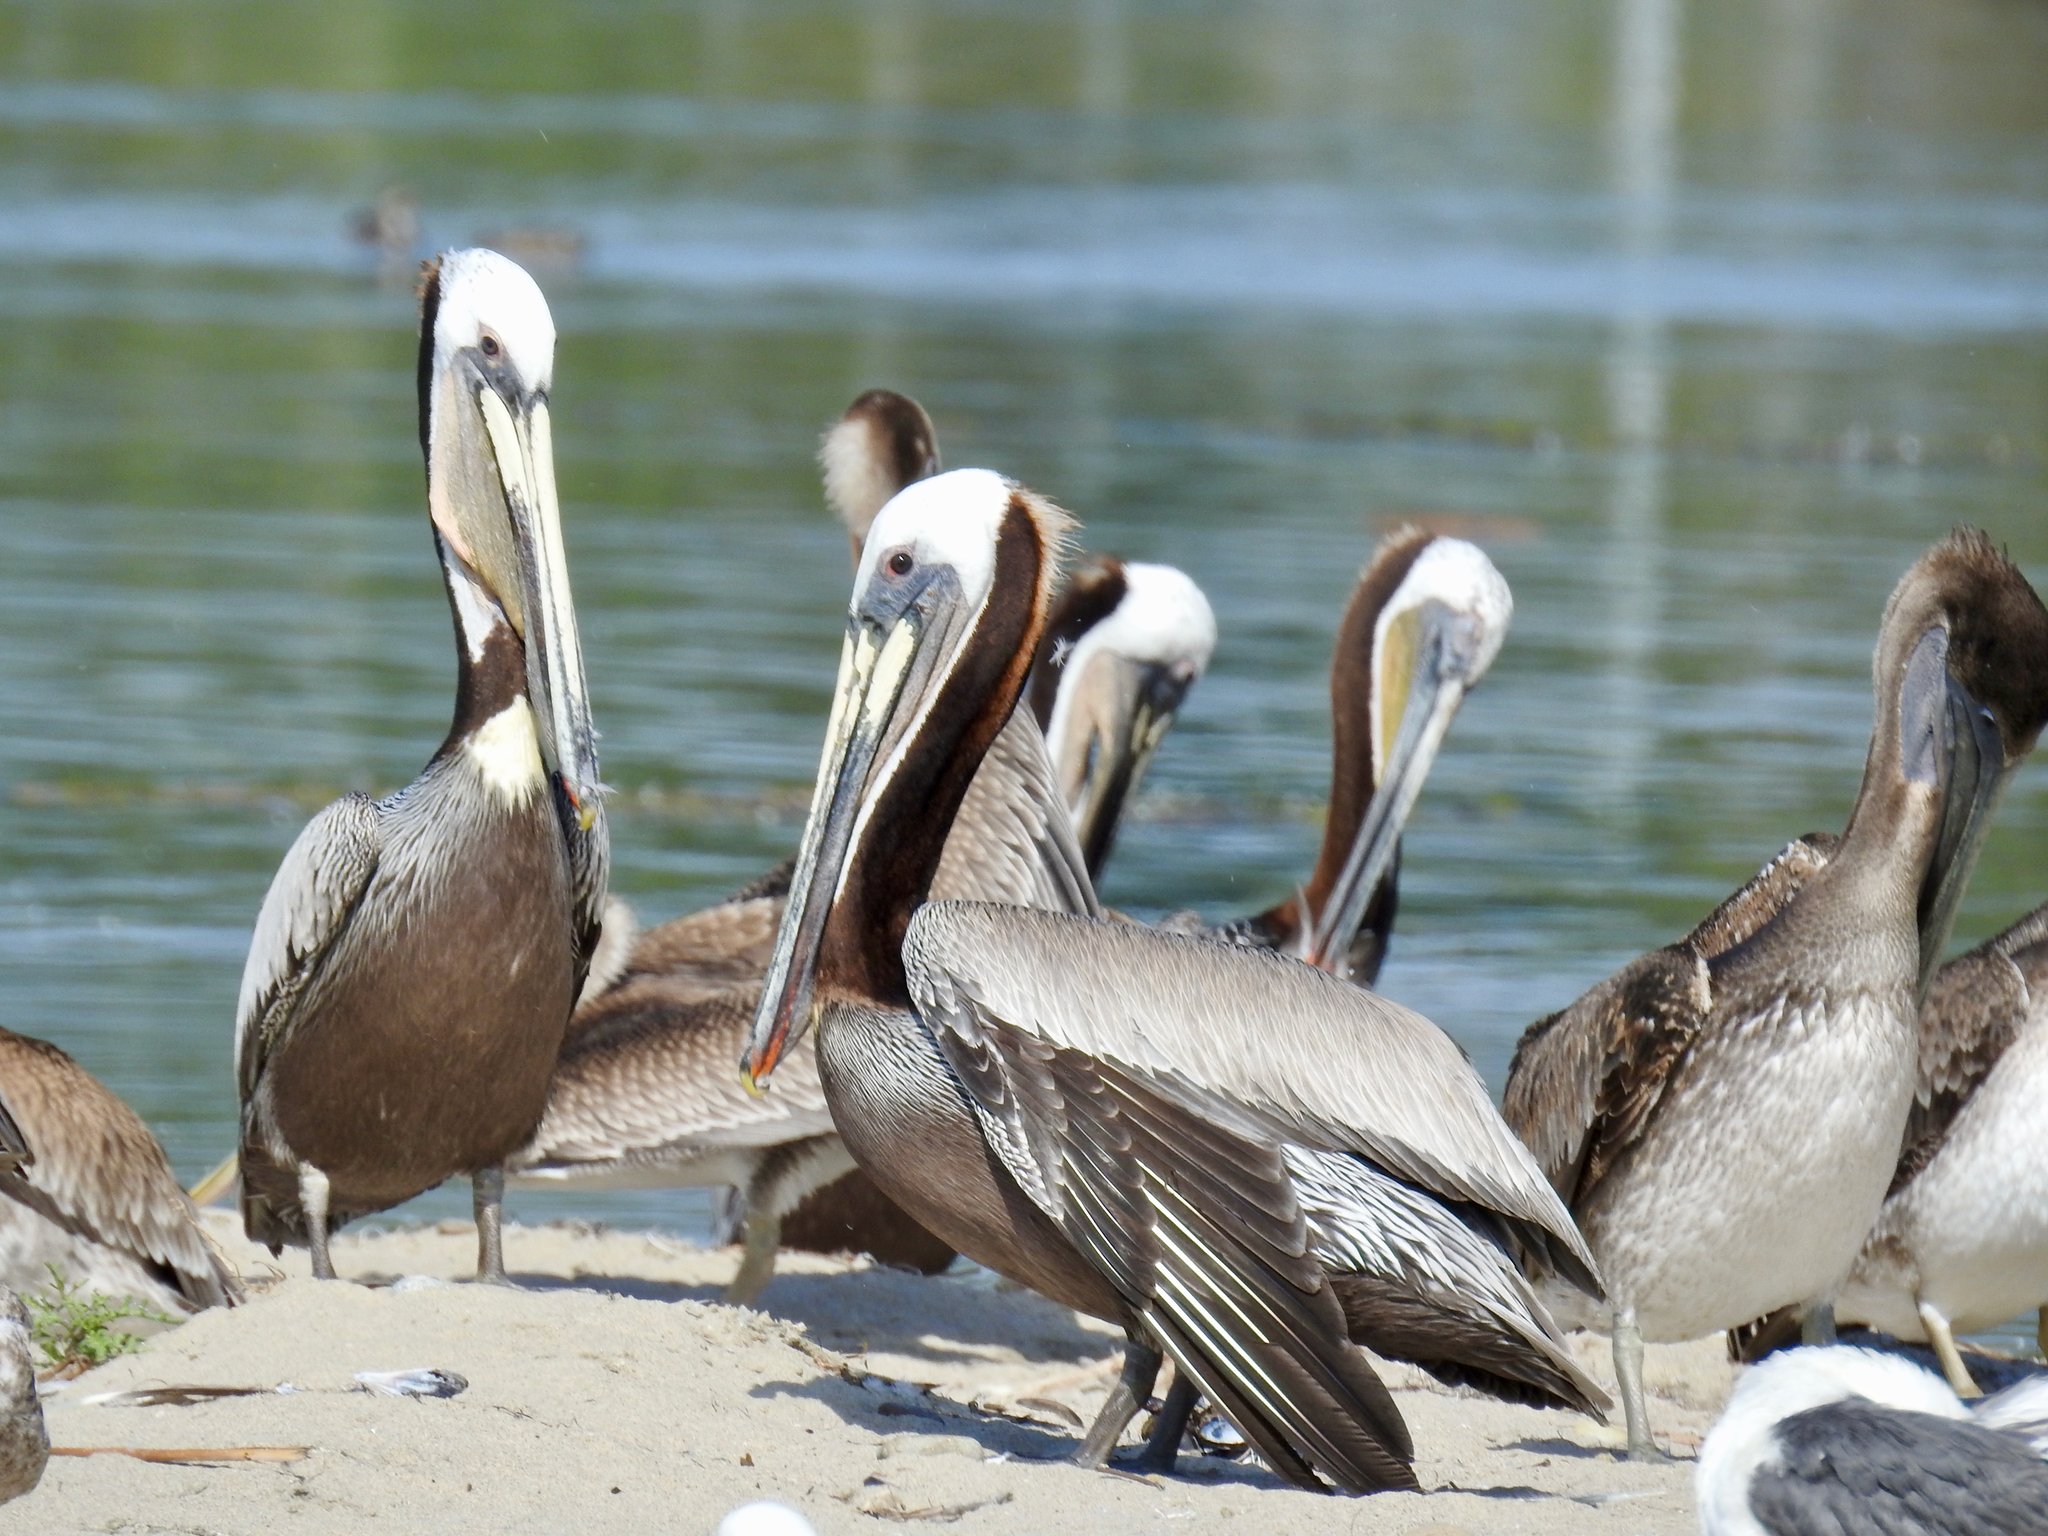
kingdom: Animalia
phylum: Chordata
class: Aves
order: Pelecaniformes
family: Pelecanidae
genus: Pelecanus
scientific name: Pelecanus occidentalis
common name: Brown pelican
